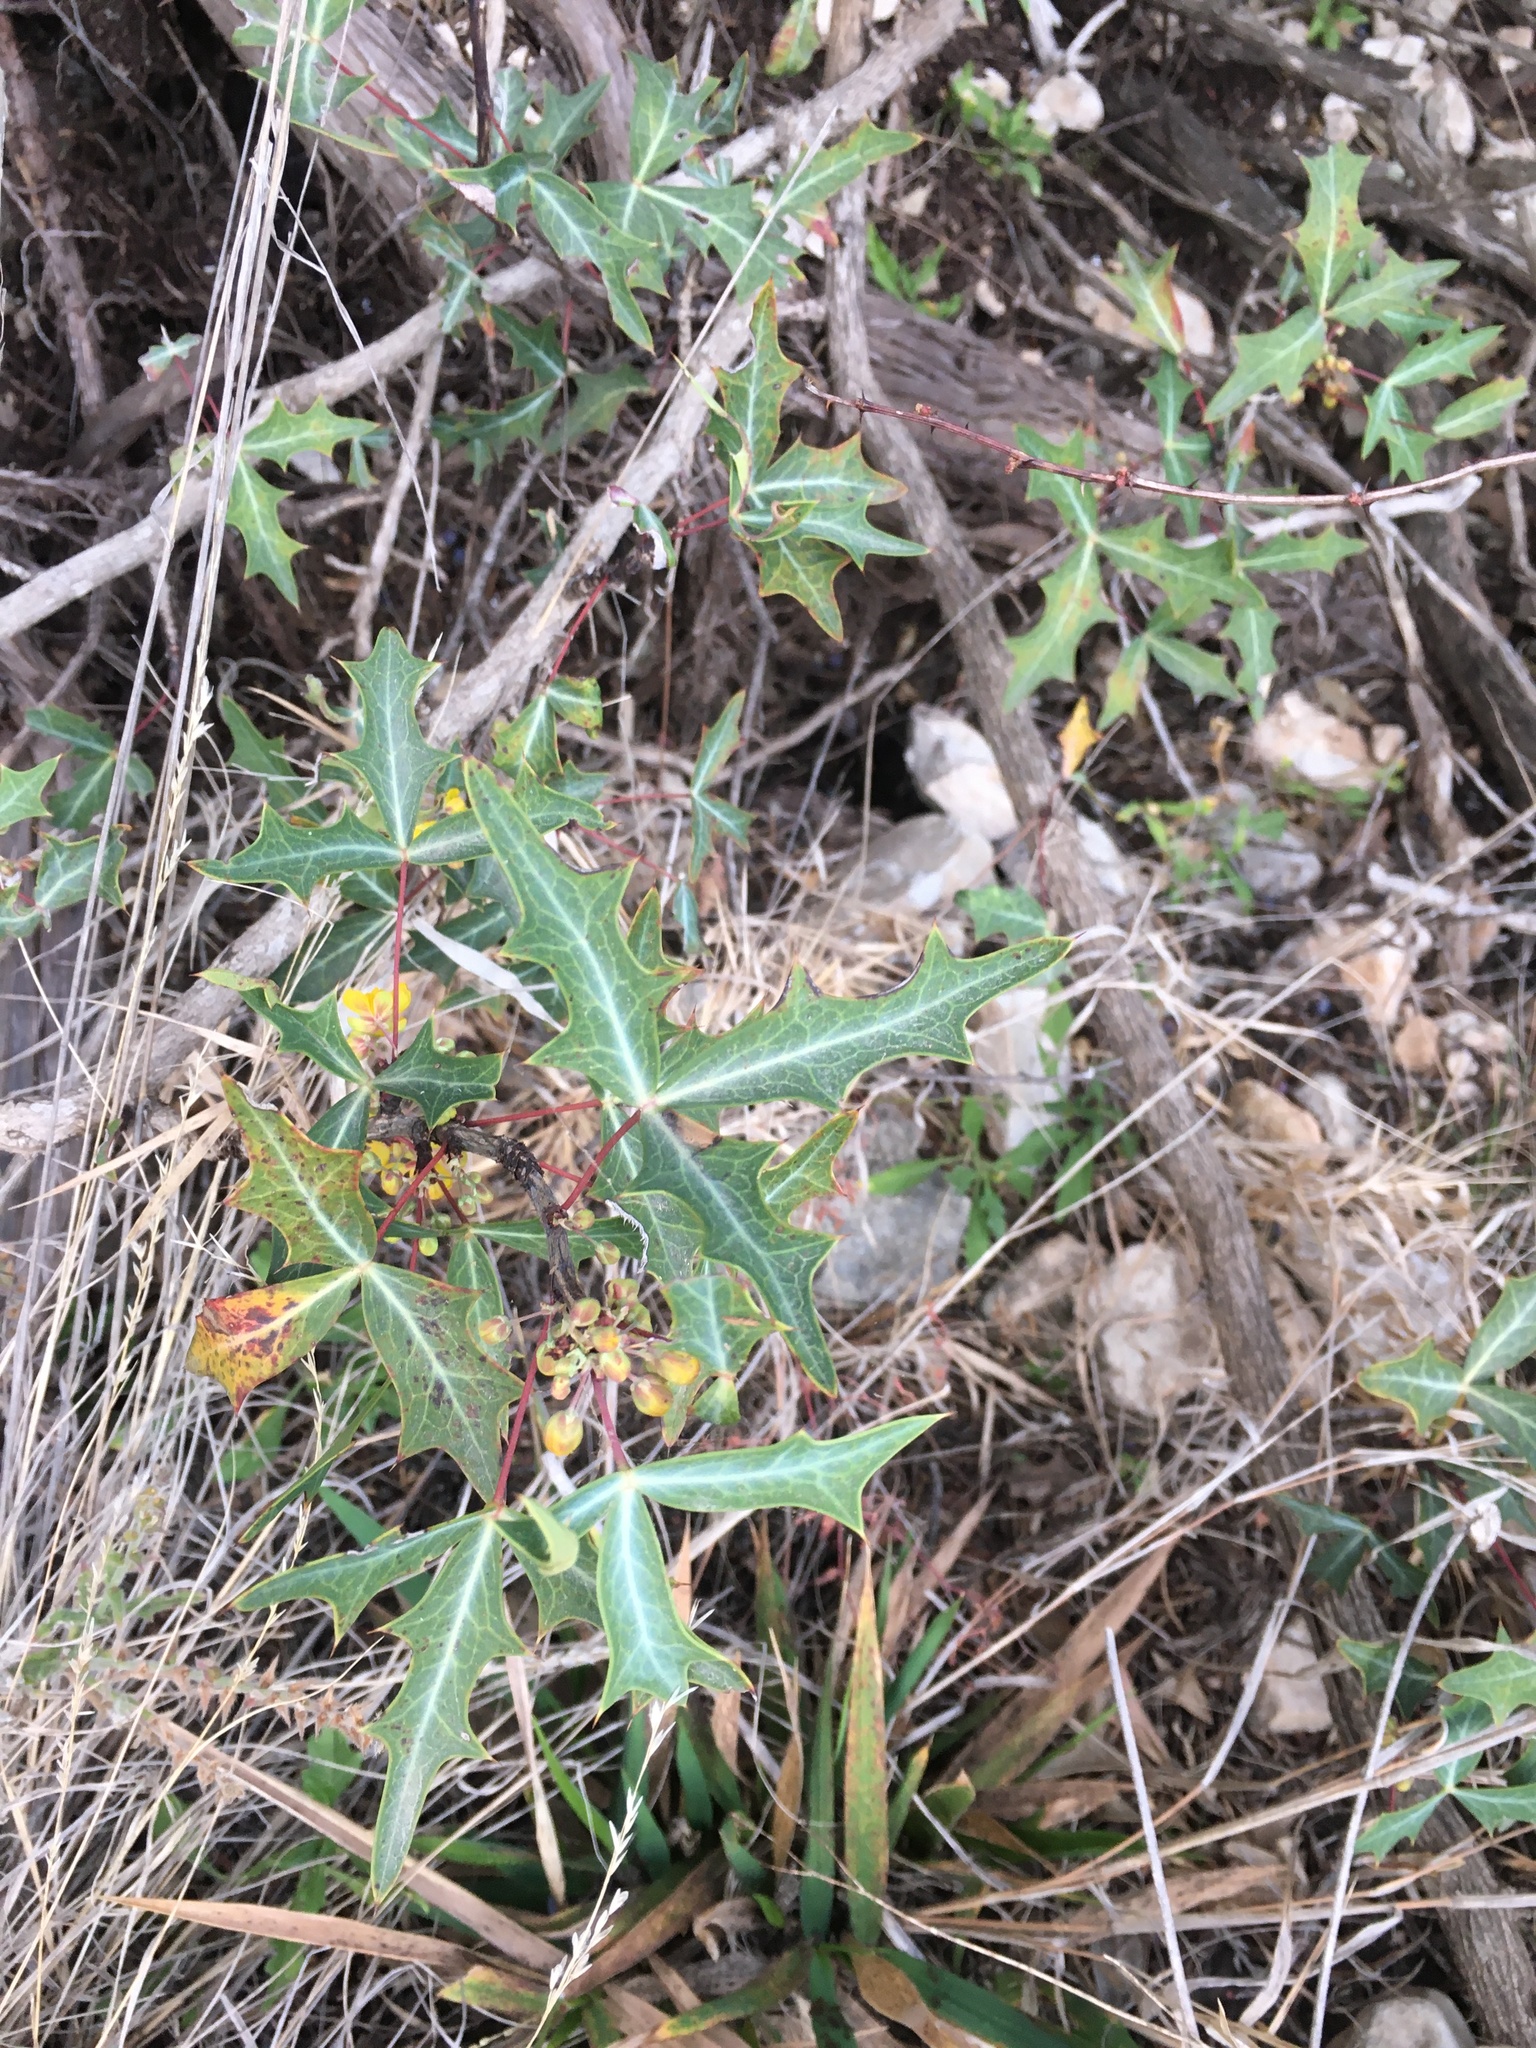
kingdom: Plantae
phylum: Tracheophyta
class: Magnoliopsida
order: Ranunculales
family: Berberidaceae
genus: Alloberberis
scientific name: Alloberberis trifoliolata
